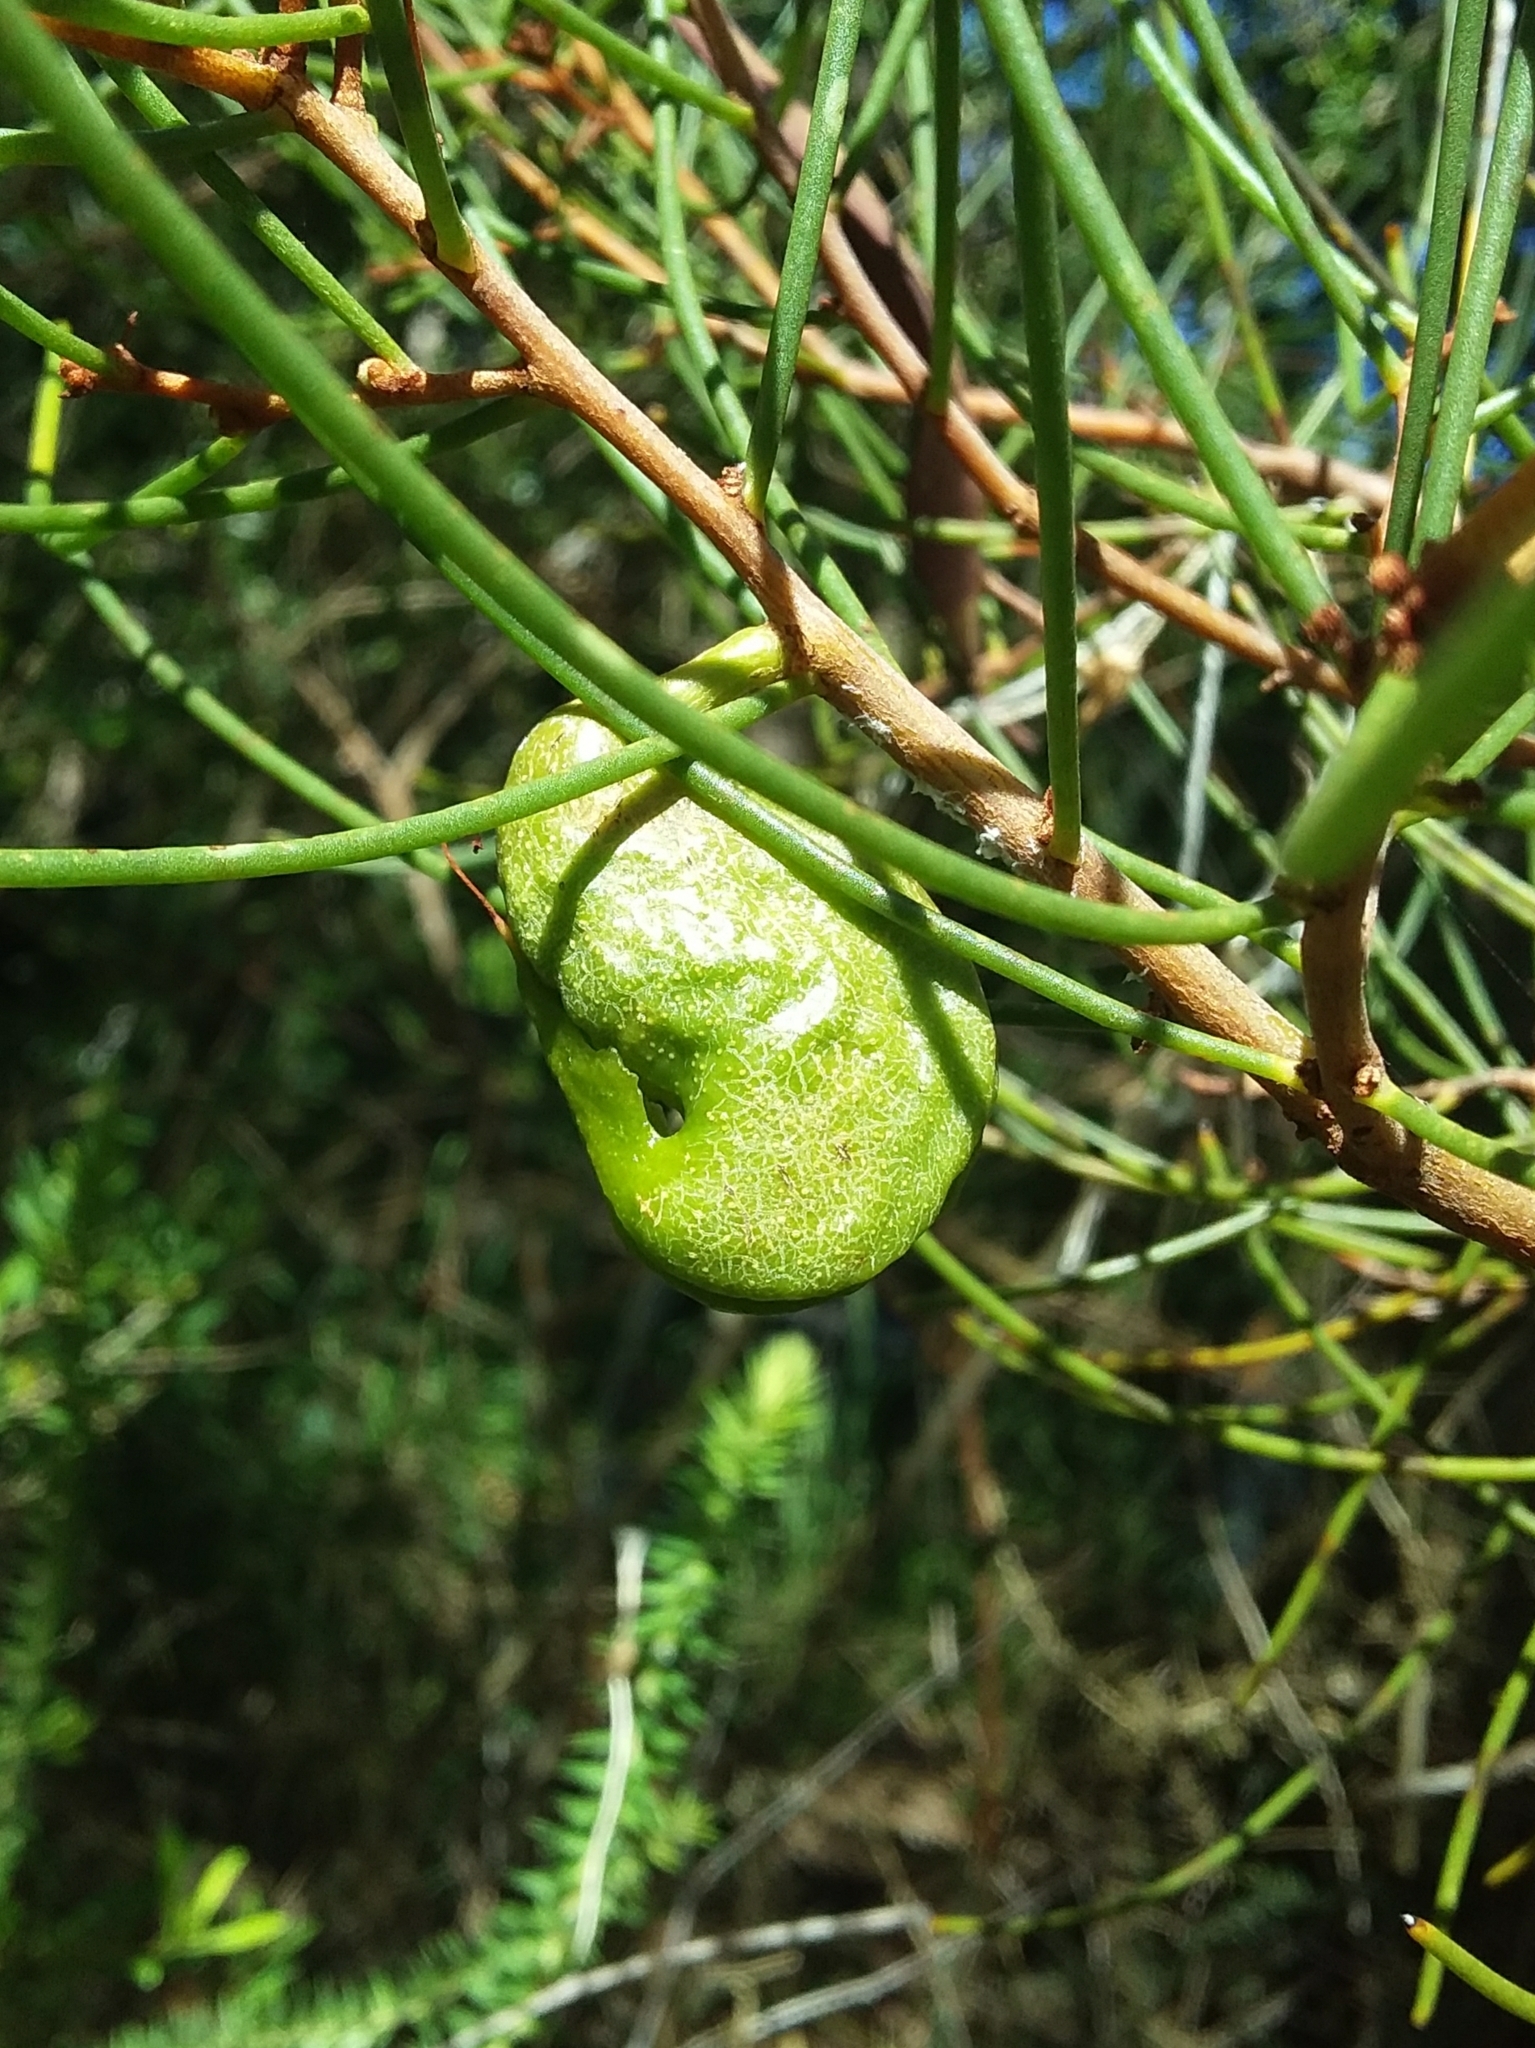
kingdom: Plantae
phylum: Tracheophyta
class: Magnoliopsida
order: Proteales
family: Proteaceae
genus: Hakea
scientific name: Hakea rostrata
